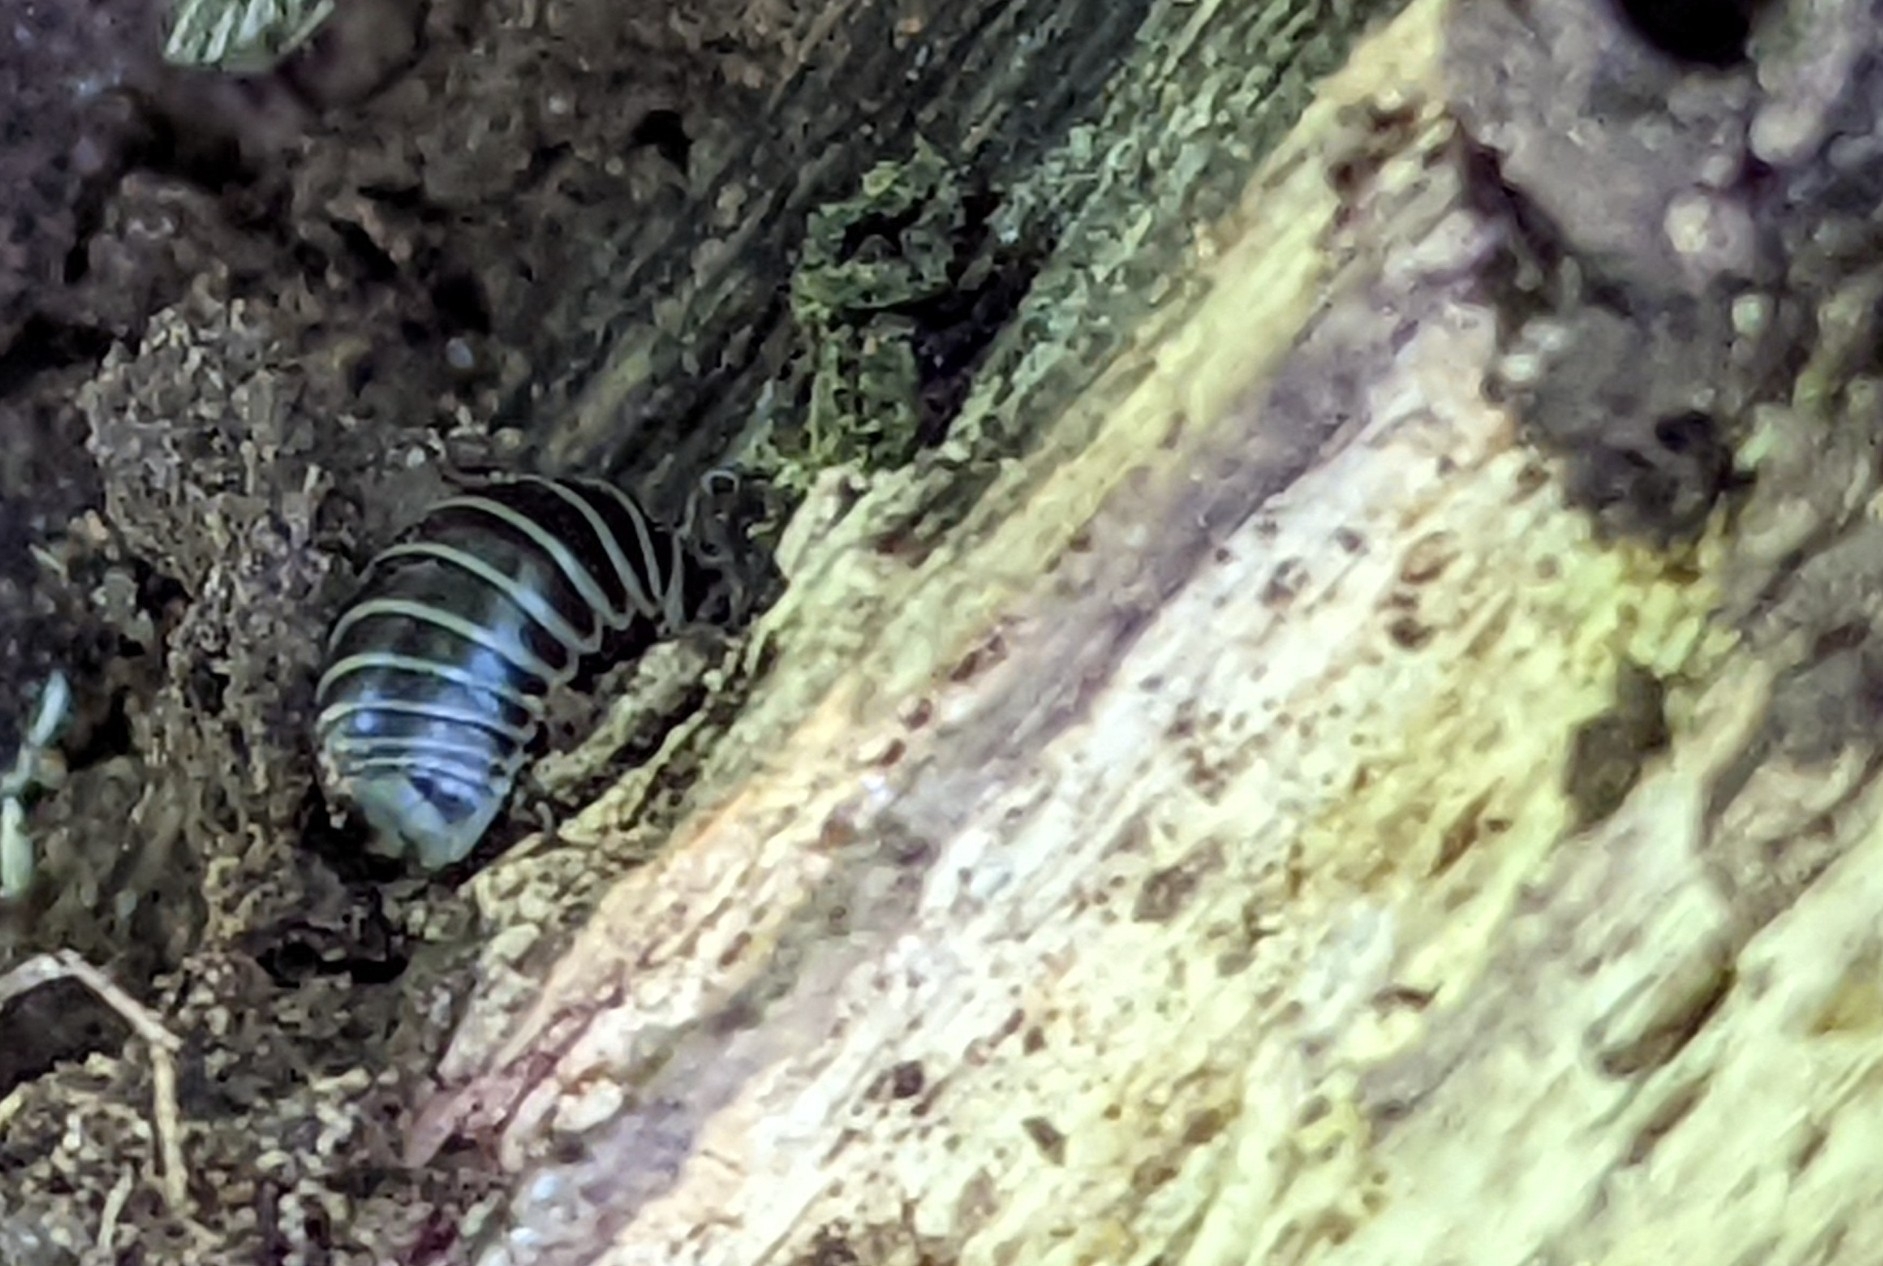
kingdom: Animalia
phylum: Arthropoda
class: Diplopoda
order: Glomerida
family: Glomeridae
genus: Glomeris
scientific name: Glomeris marginata
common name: Bordered pill millipede
